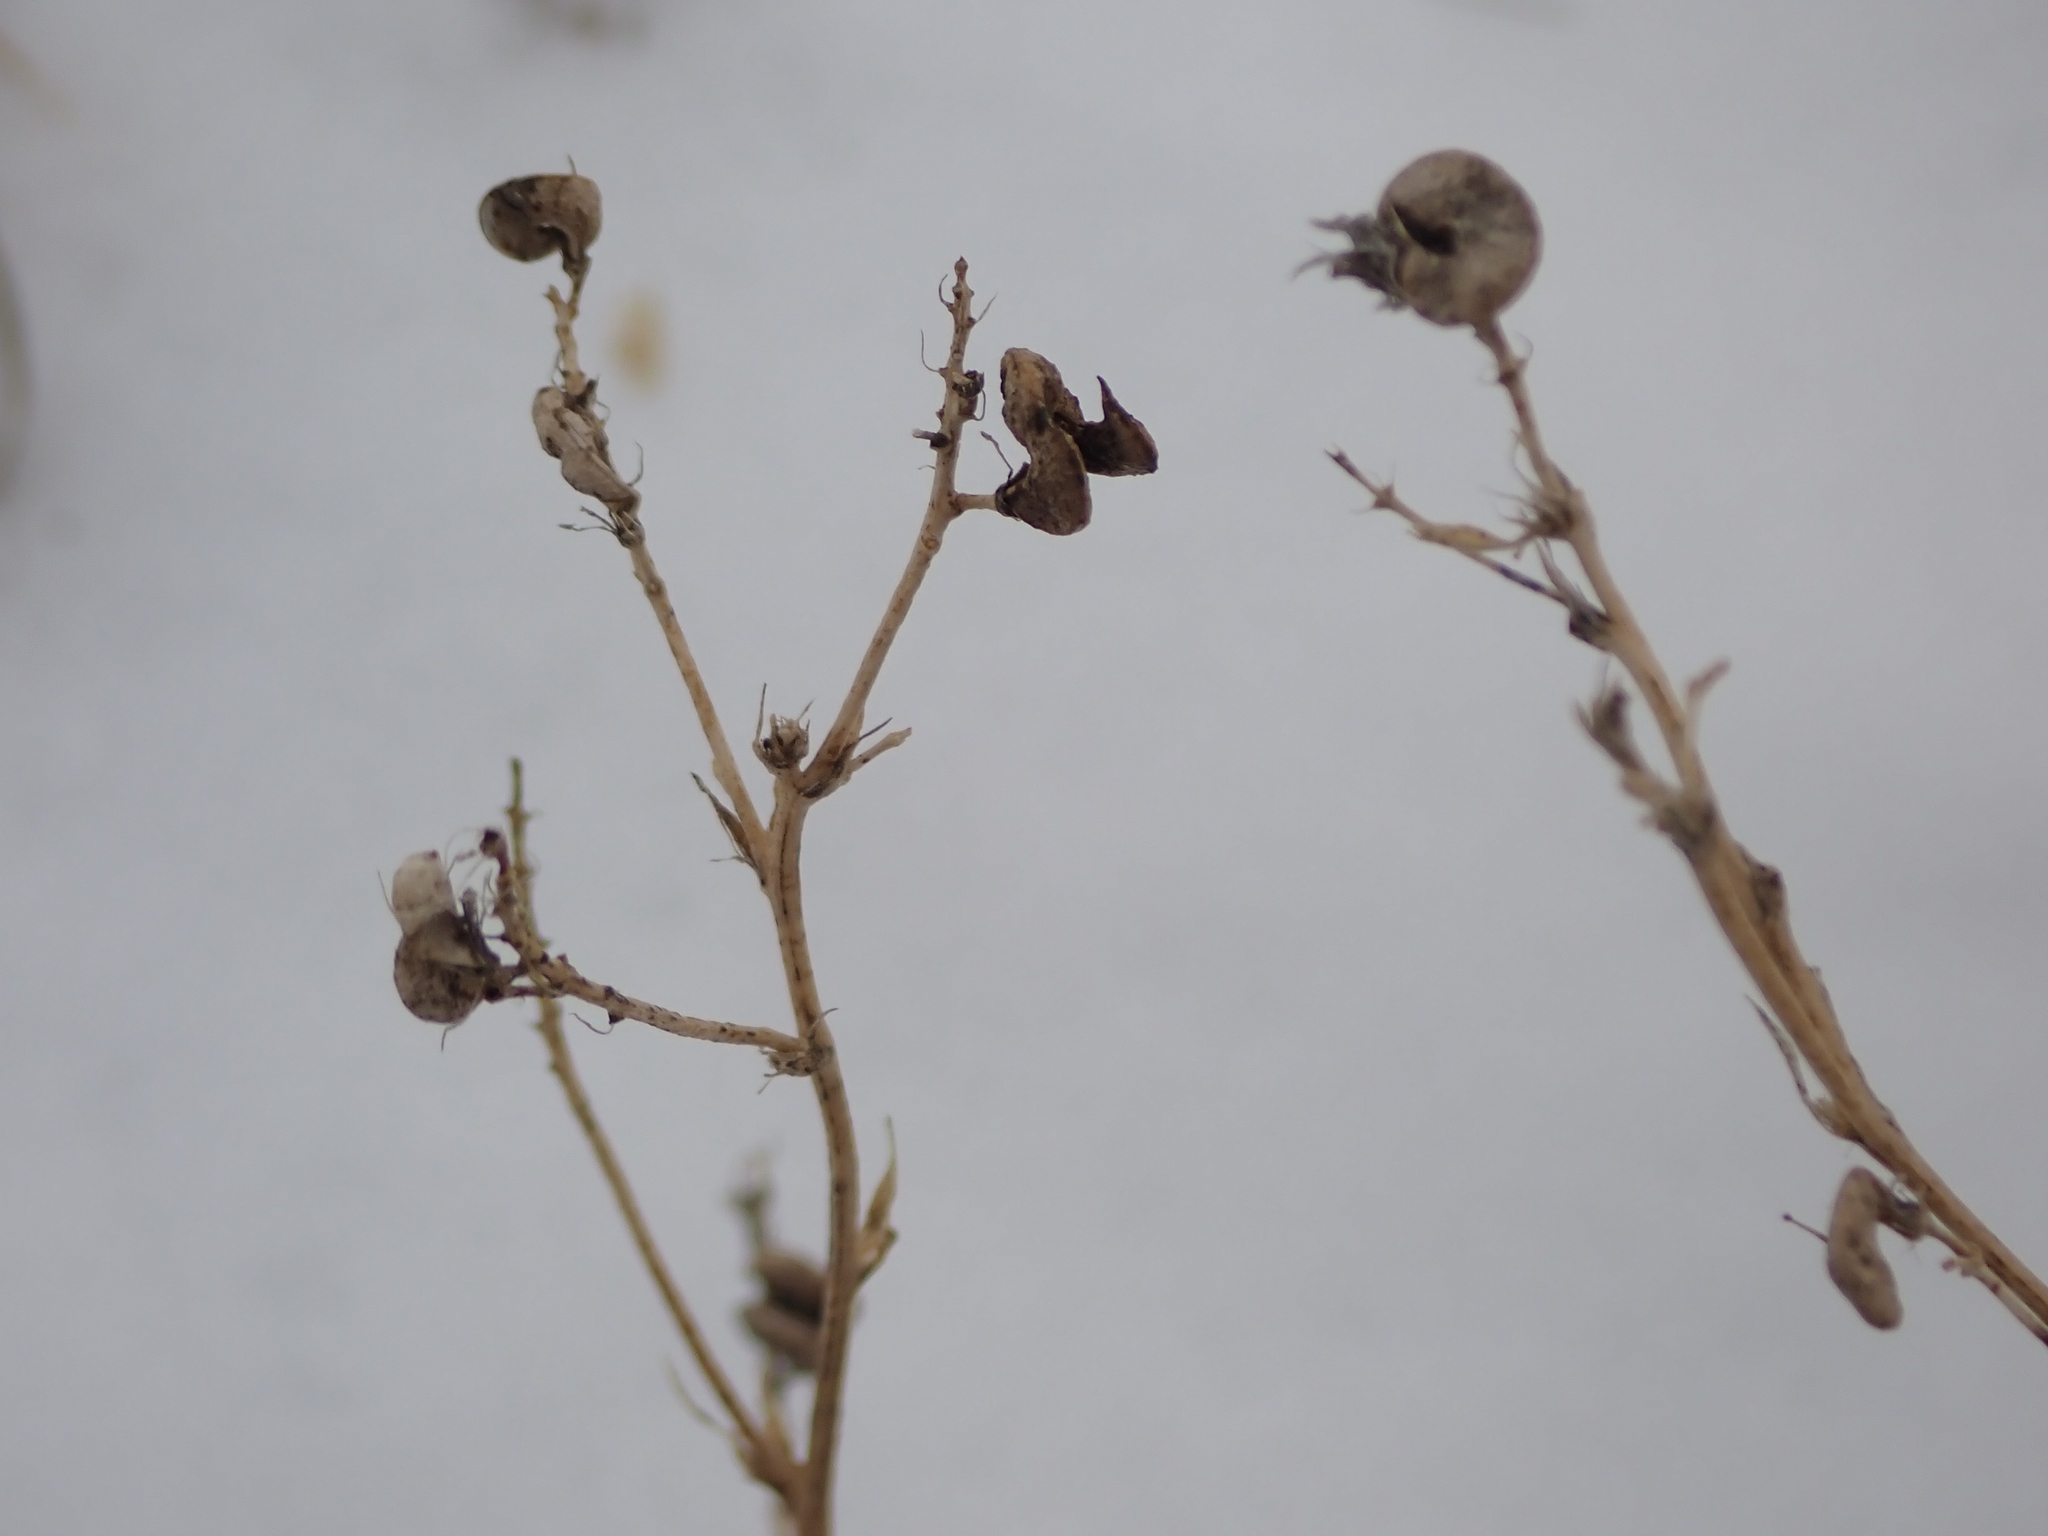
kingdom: Plantae
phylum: Tracheophyta
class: Magnoliopsida
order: Fabales
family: Fabaceae
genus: Medicago
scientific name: Medicago sativa
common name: Alfalfa
